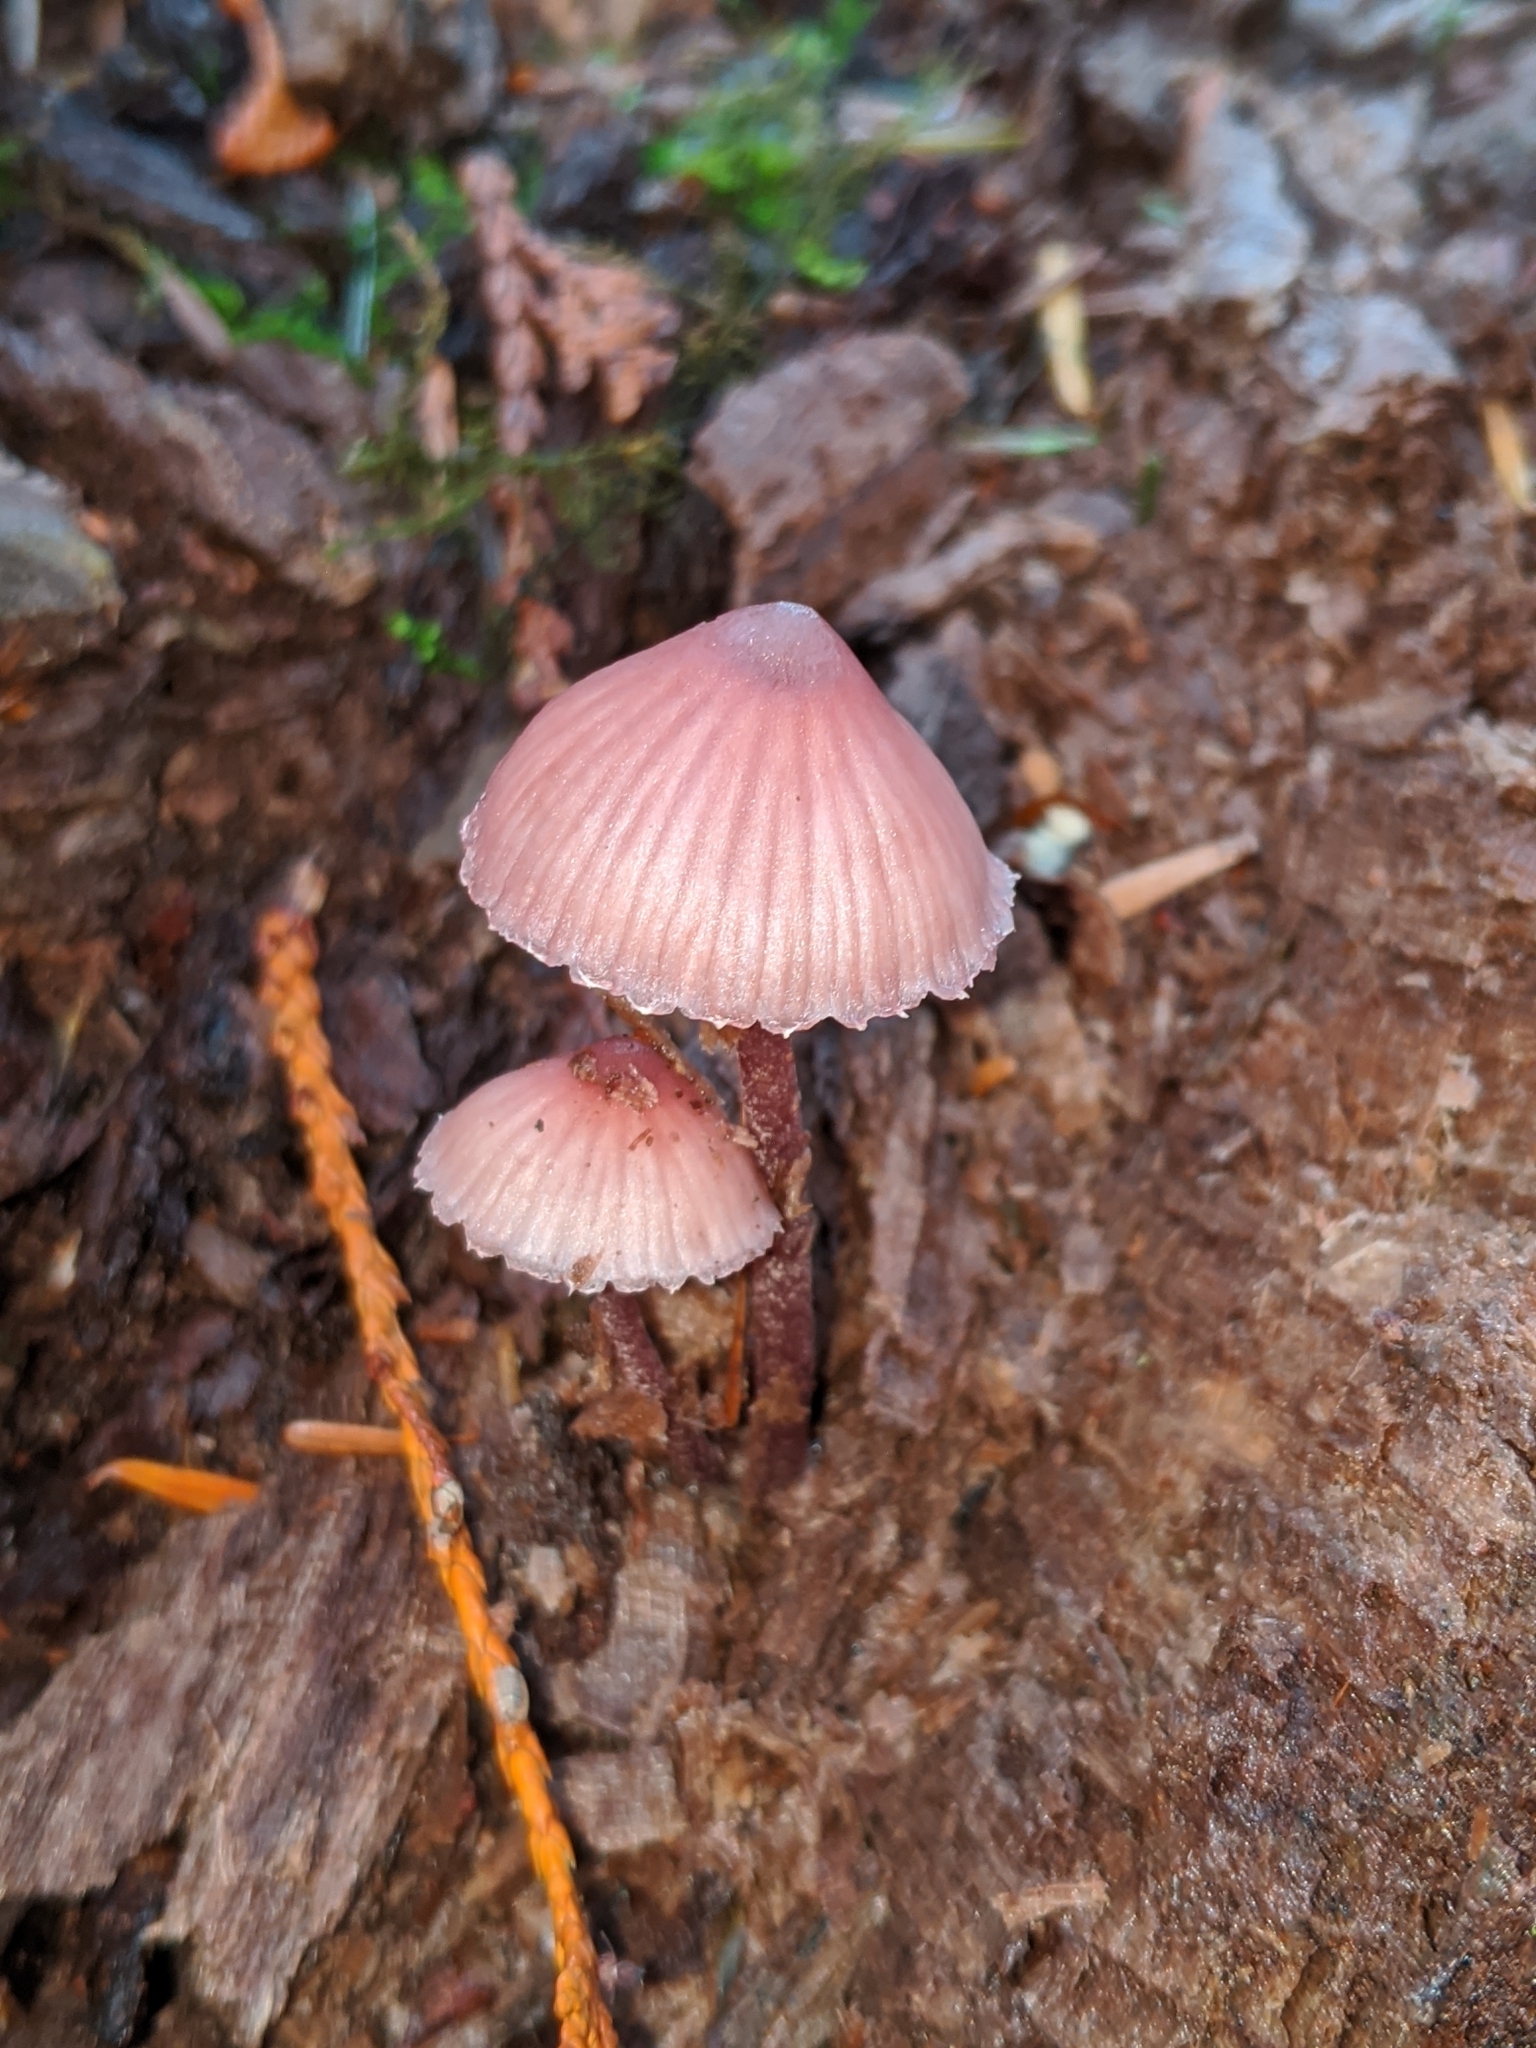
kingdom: Fungi
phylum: Basidiomycota
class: Agaricomycetes
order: Agaricales
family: Mycenaceae
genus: Mycena
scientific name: Mycena haematopus
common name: Burgundydrop bonnet
